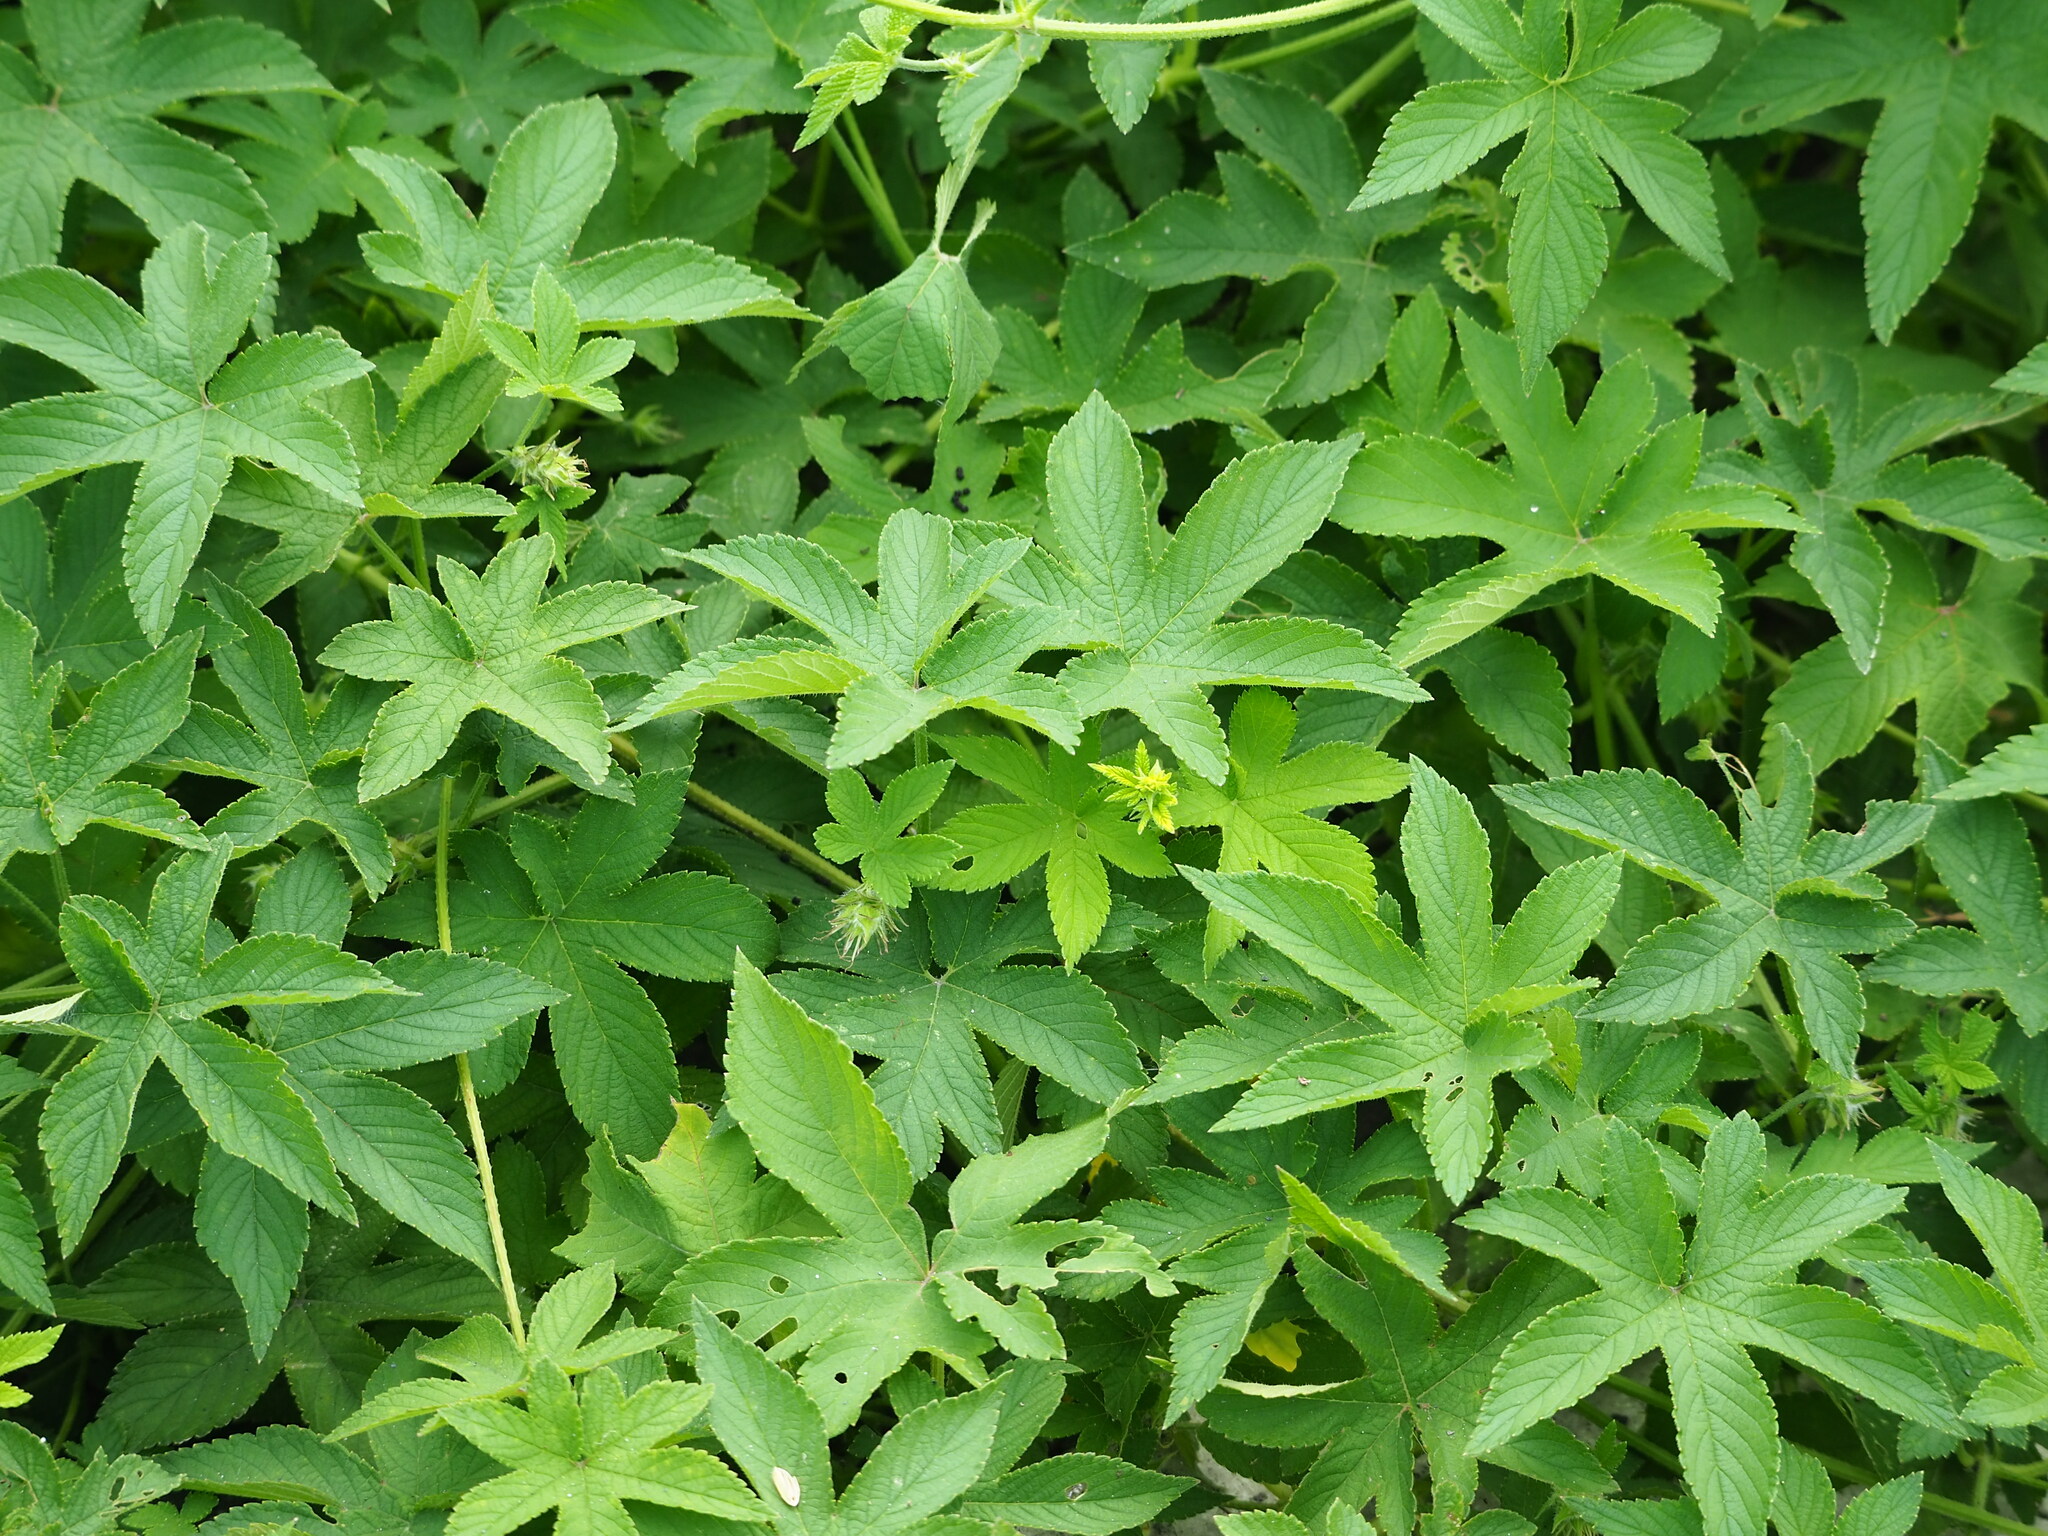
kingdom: Plantae
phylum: Tracheophyta
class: Magnoliopsida
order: Rosales
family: Cannabaceae
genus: Humulus
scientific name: Humulus scandens
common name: Japanese hop
